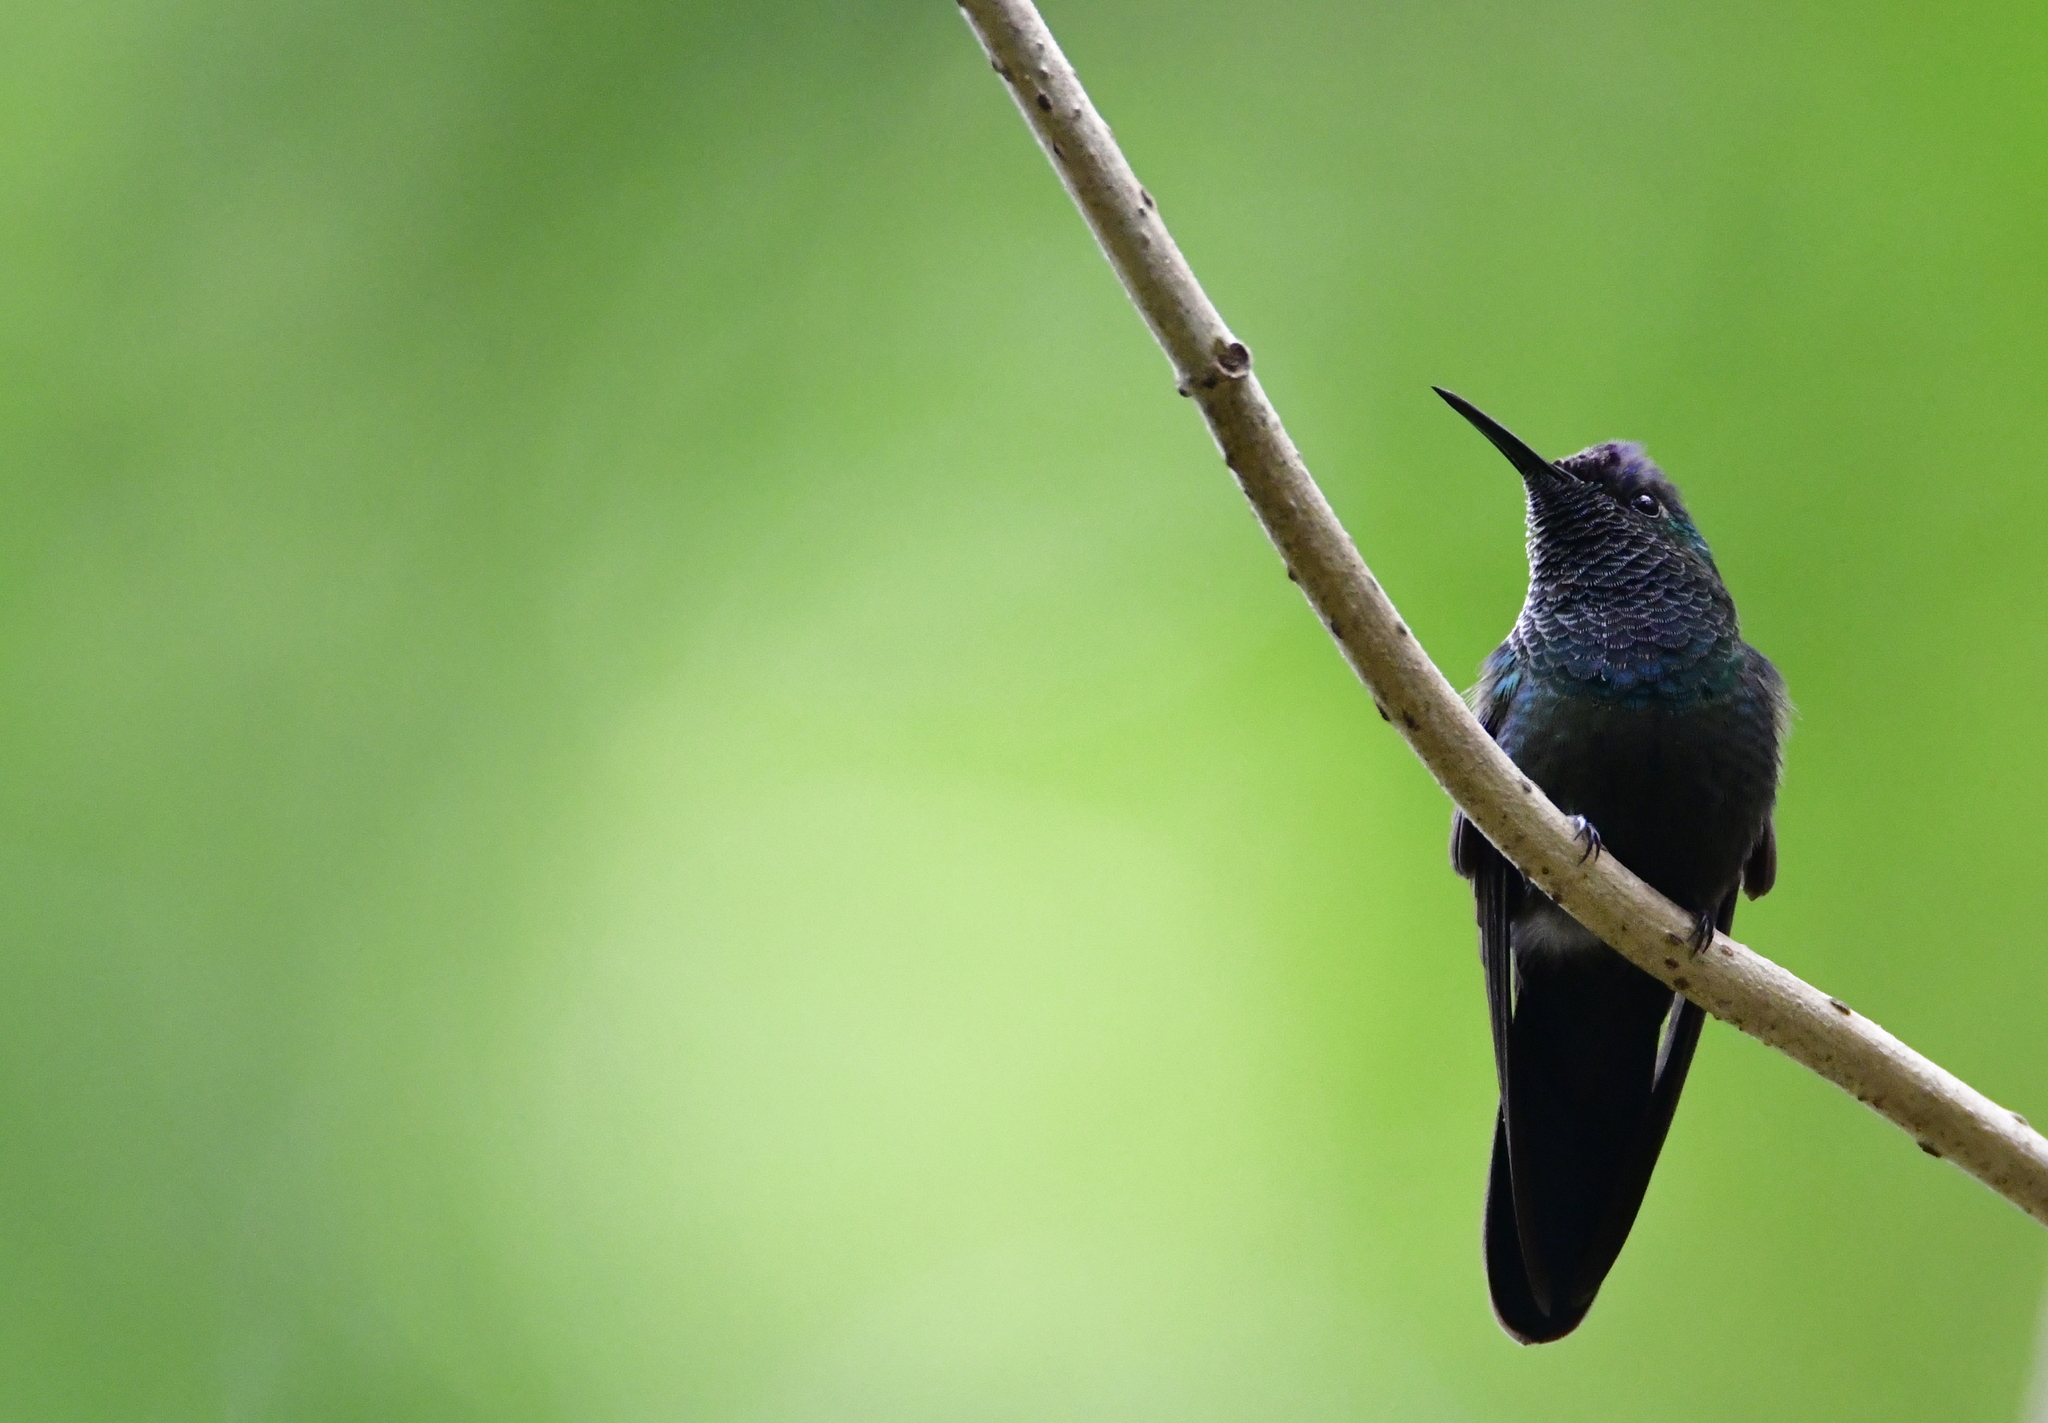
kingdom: Animalia
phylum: Chordata
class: Aves
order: Apodiformes
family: Trochilidae
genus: Eugenes
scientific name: Eugenes fulgens
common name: Magnificent hummingbird
